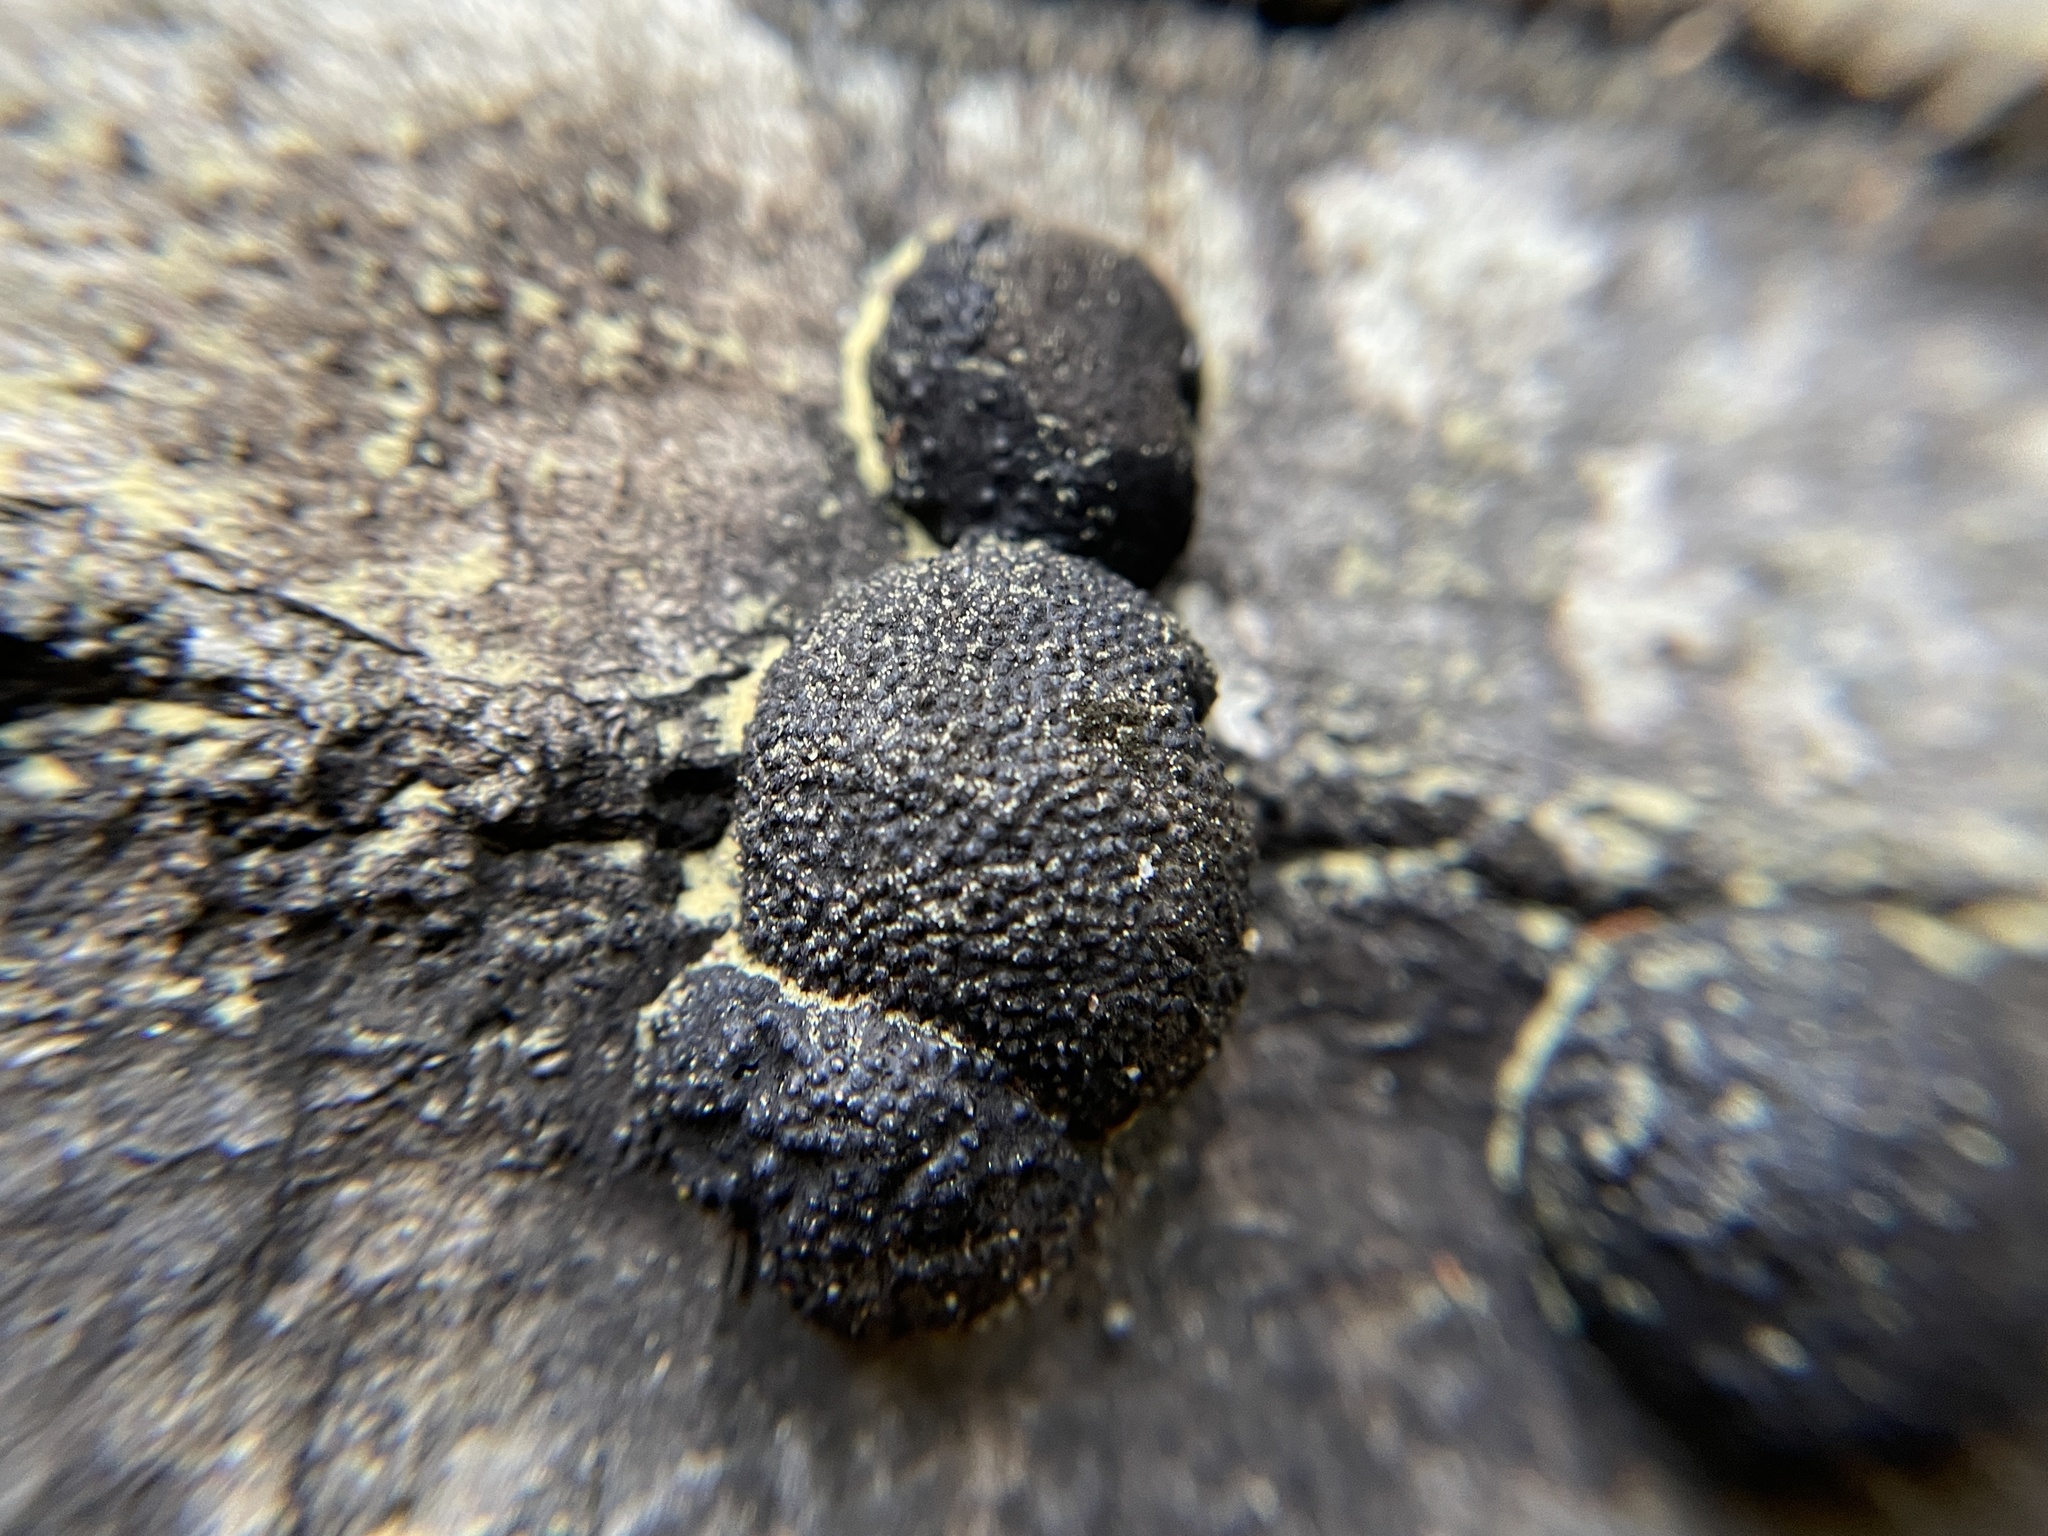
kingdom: Fungi
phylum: Ascomycota
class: Sordariomycetes
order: Xylariales
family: Hypoxylaceae
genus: Annulohypoxylon
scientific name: Annulohypoxylon thouarsianum
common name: Cramp balls
